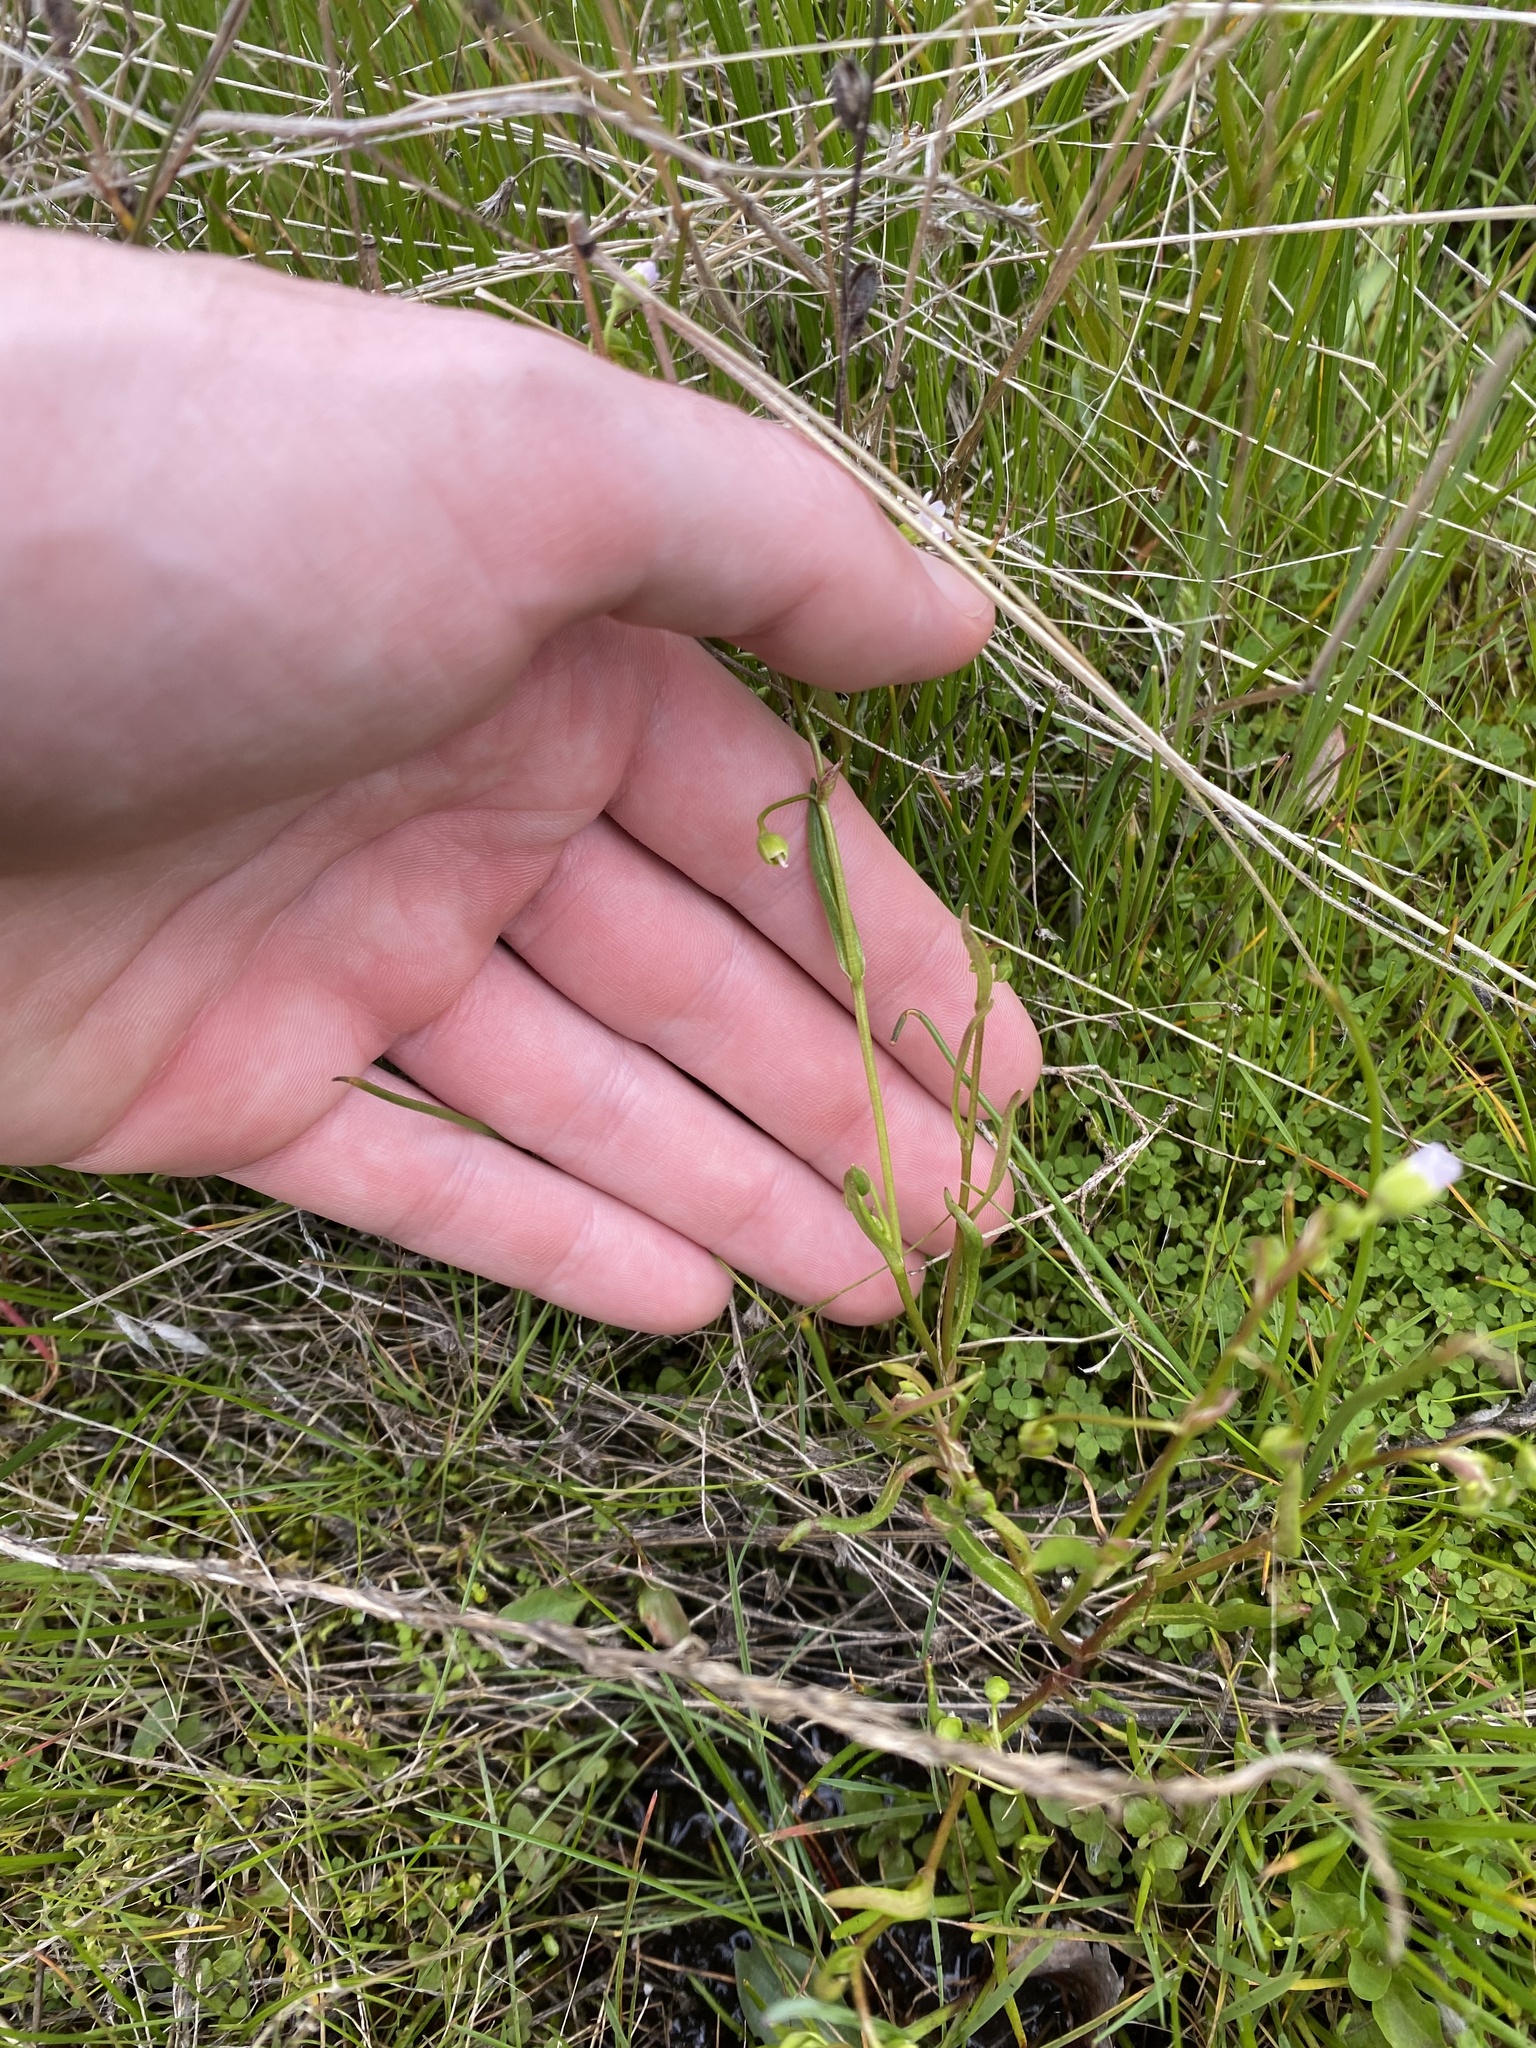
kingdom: Plantae
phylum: Tracheophyta
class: Magnoliopsida
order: Caryophyllales
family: Montiaceae
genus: Montia
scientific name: Montia linearis
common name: Narrow-leaf montia
